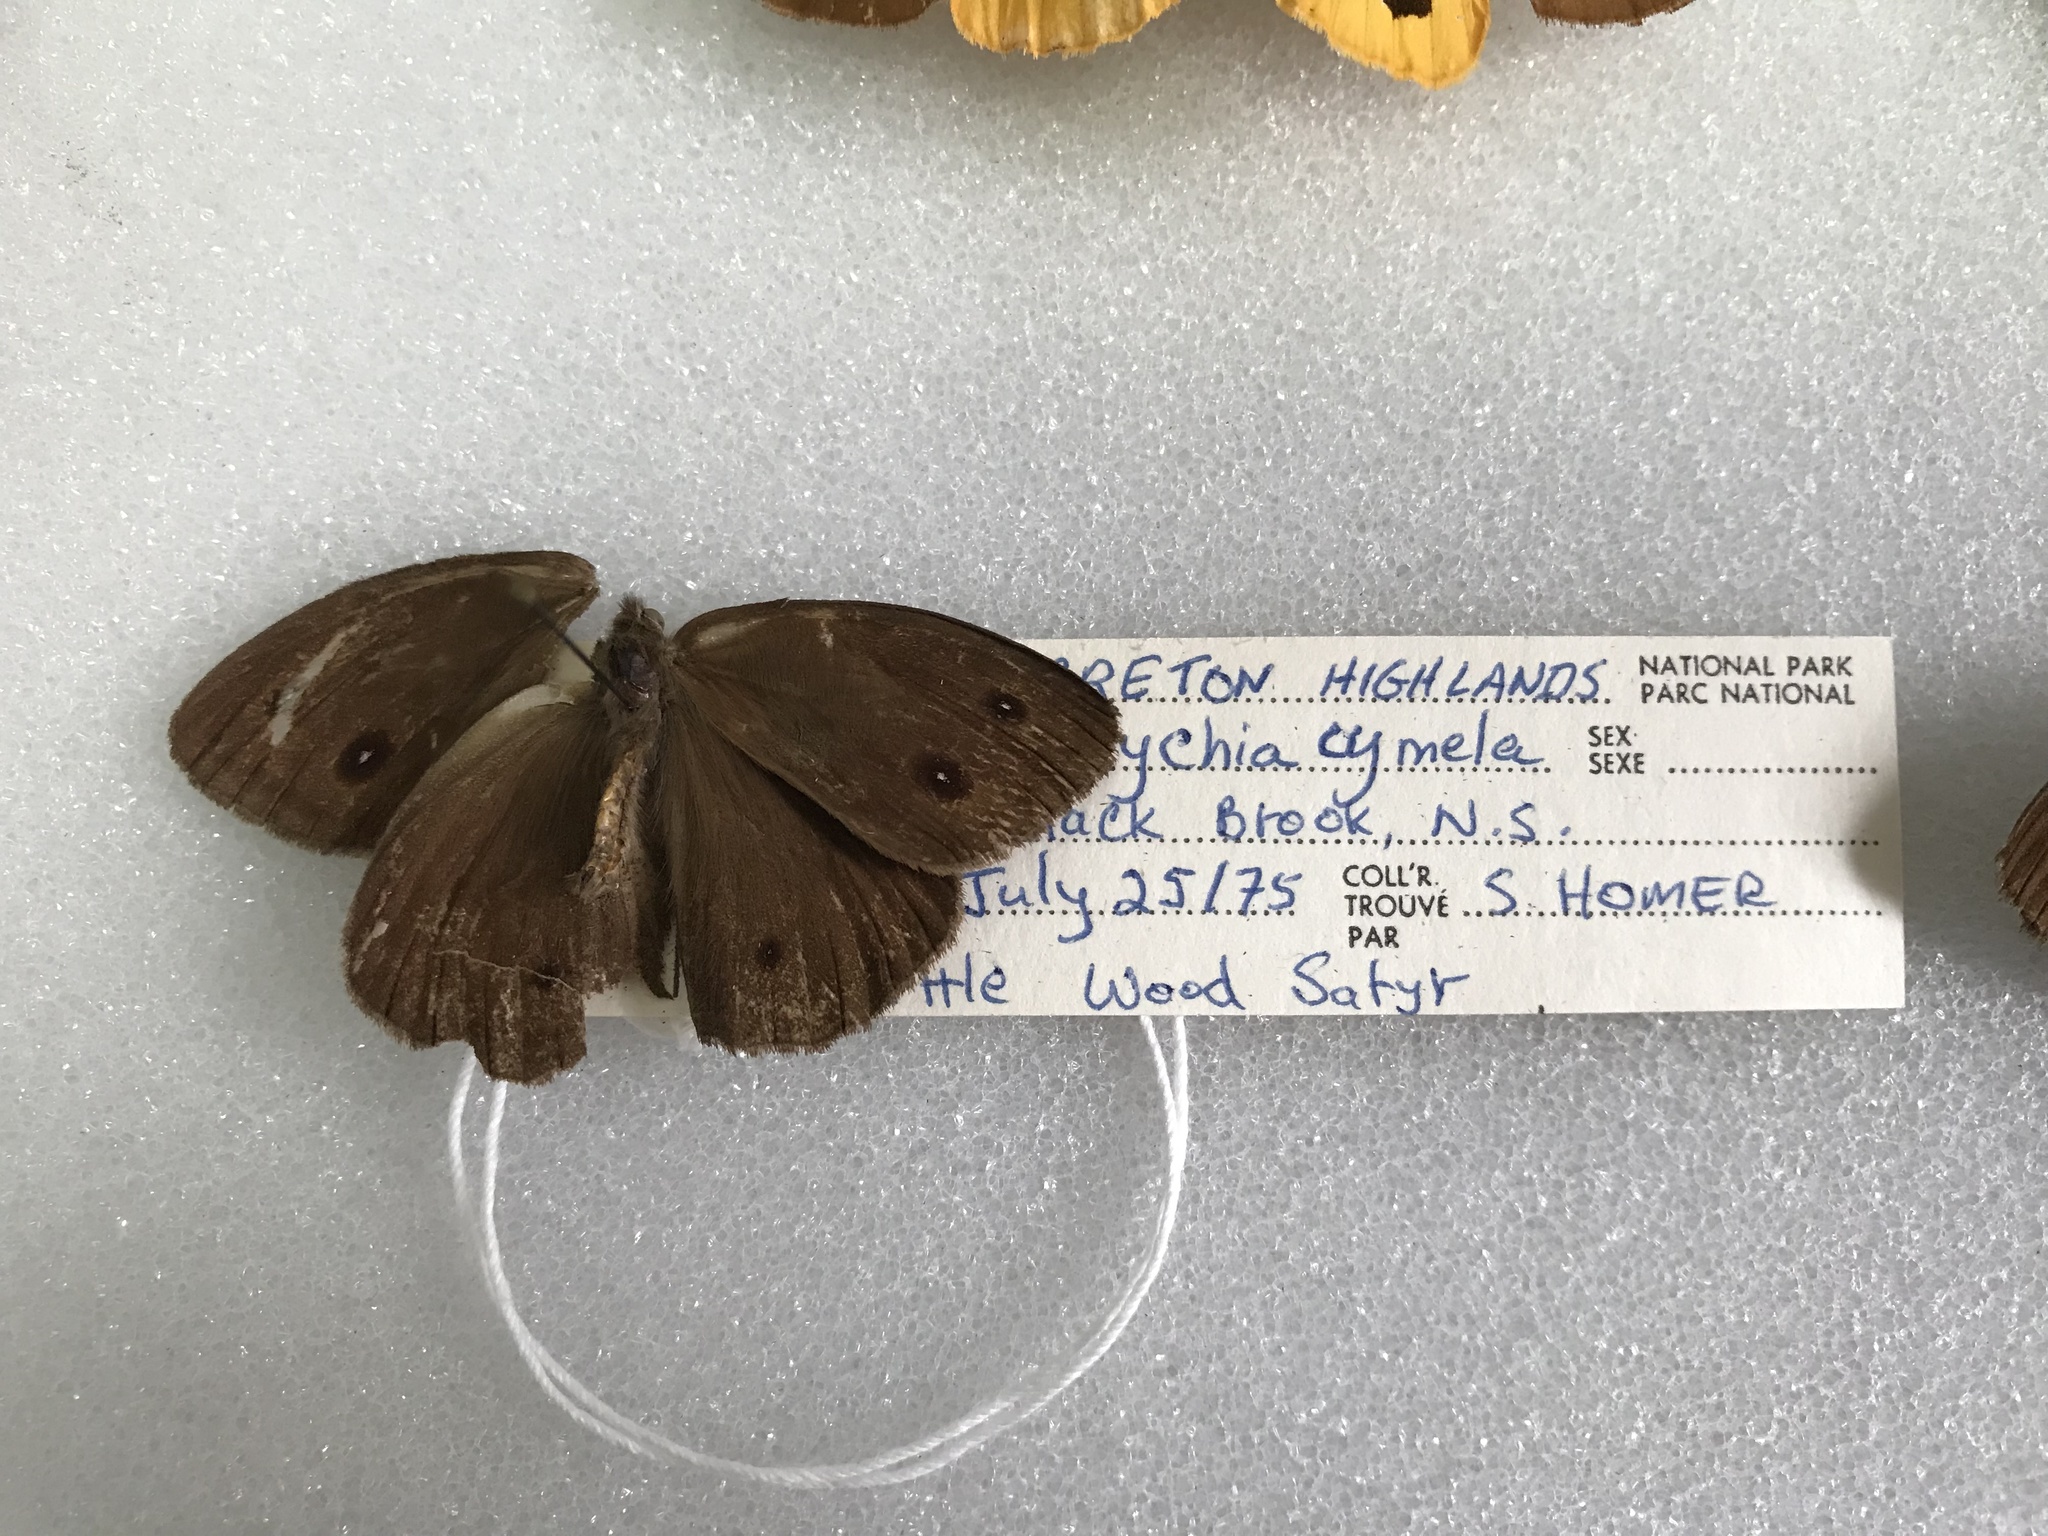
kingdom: Animalia
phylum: Arthropoda
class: Insecta
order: Lepidoptera
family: Nymphalidae
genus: Cercyonis
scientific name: Cercyonis pegala
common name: Common wood-nymph
